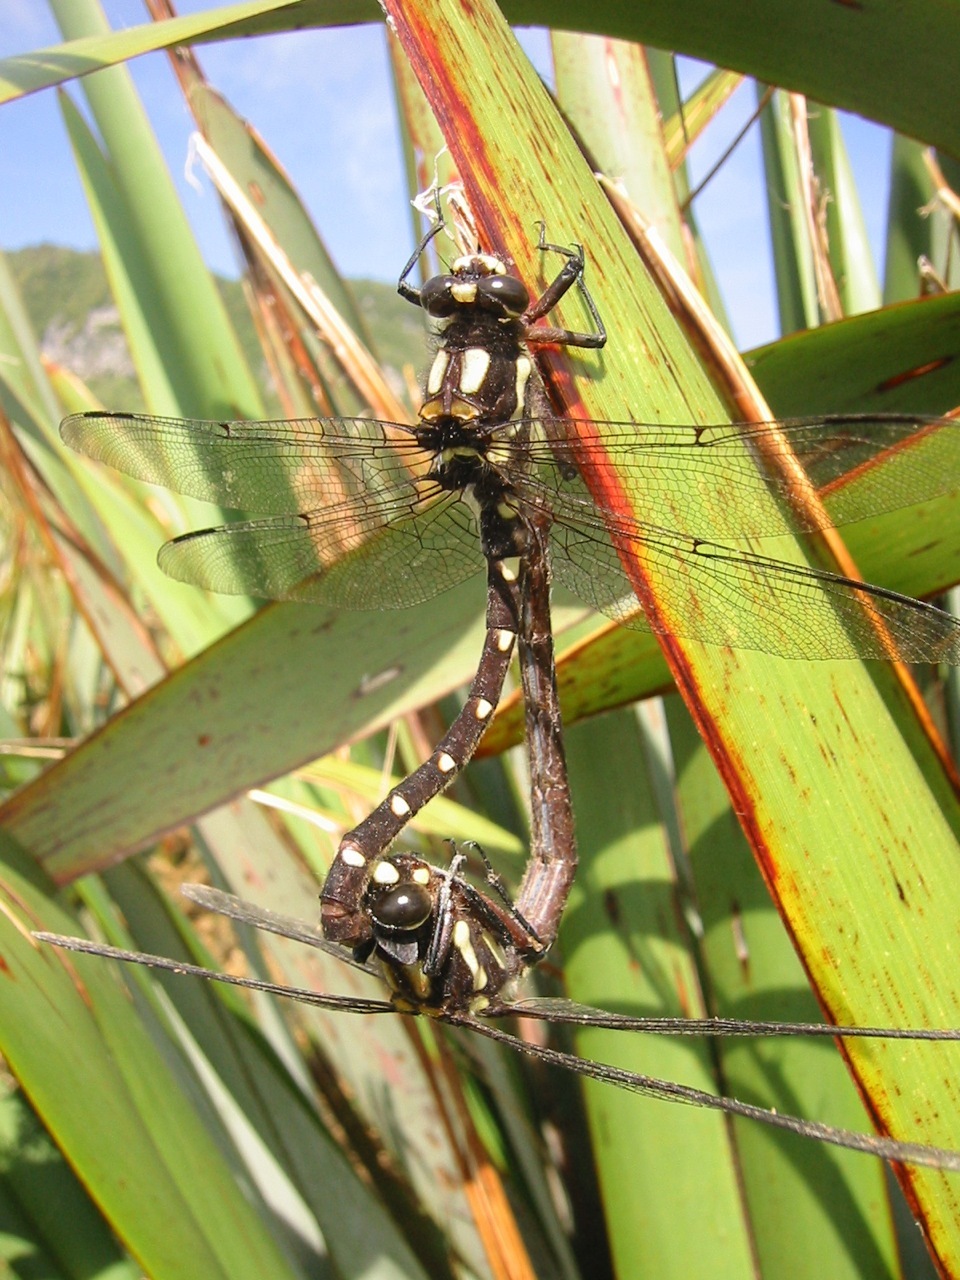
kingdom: Animalia
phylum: Arthropoda
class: Insecta
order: Odonata
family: Petaluridae
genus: Uropetala
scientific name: Uropetala carovei
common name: Bush giant dragonfly
